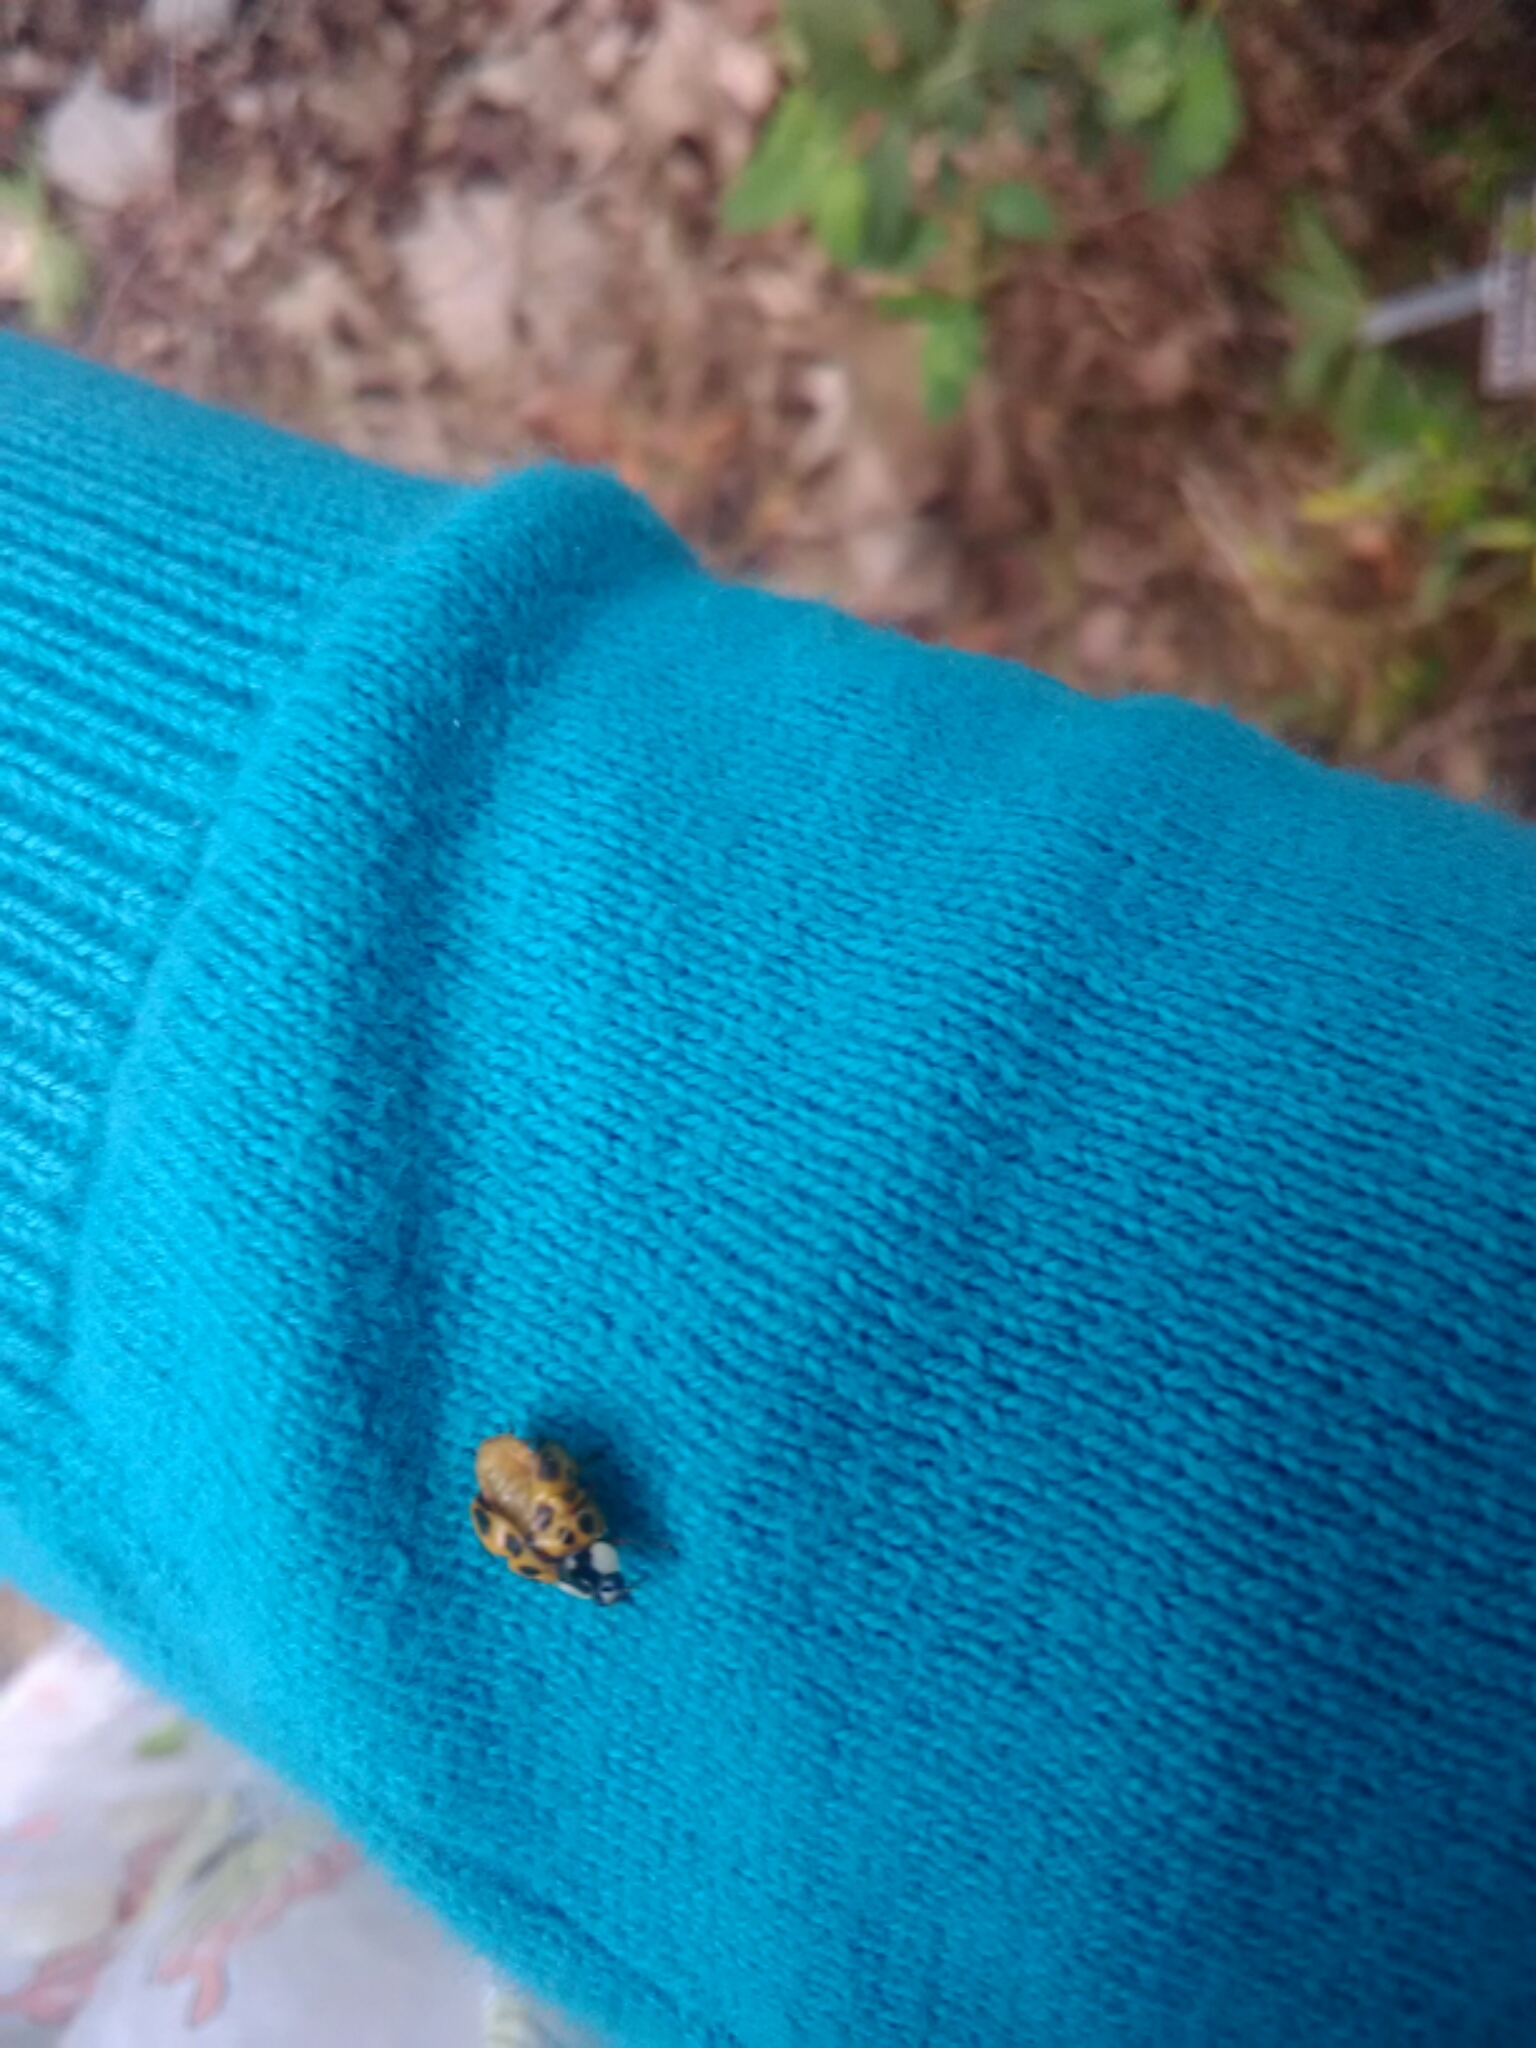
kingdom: Animalia
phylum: Arthropoda
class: Insecta
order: Coleoptera
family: Coccinellidae
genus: Harmonia
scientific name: Harmonia axyridis
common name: Harlequin ladybird
